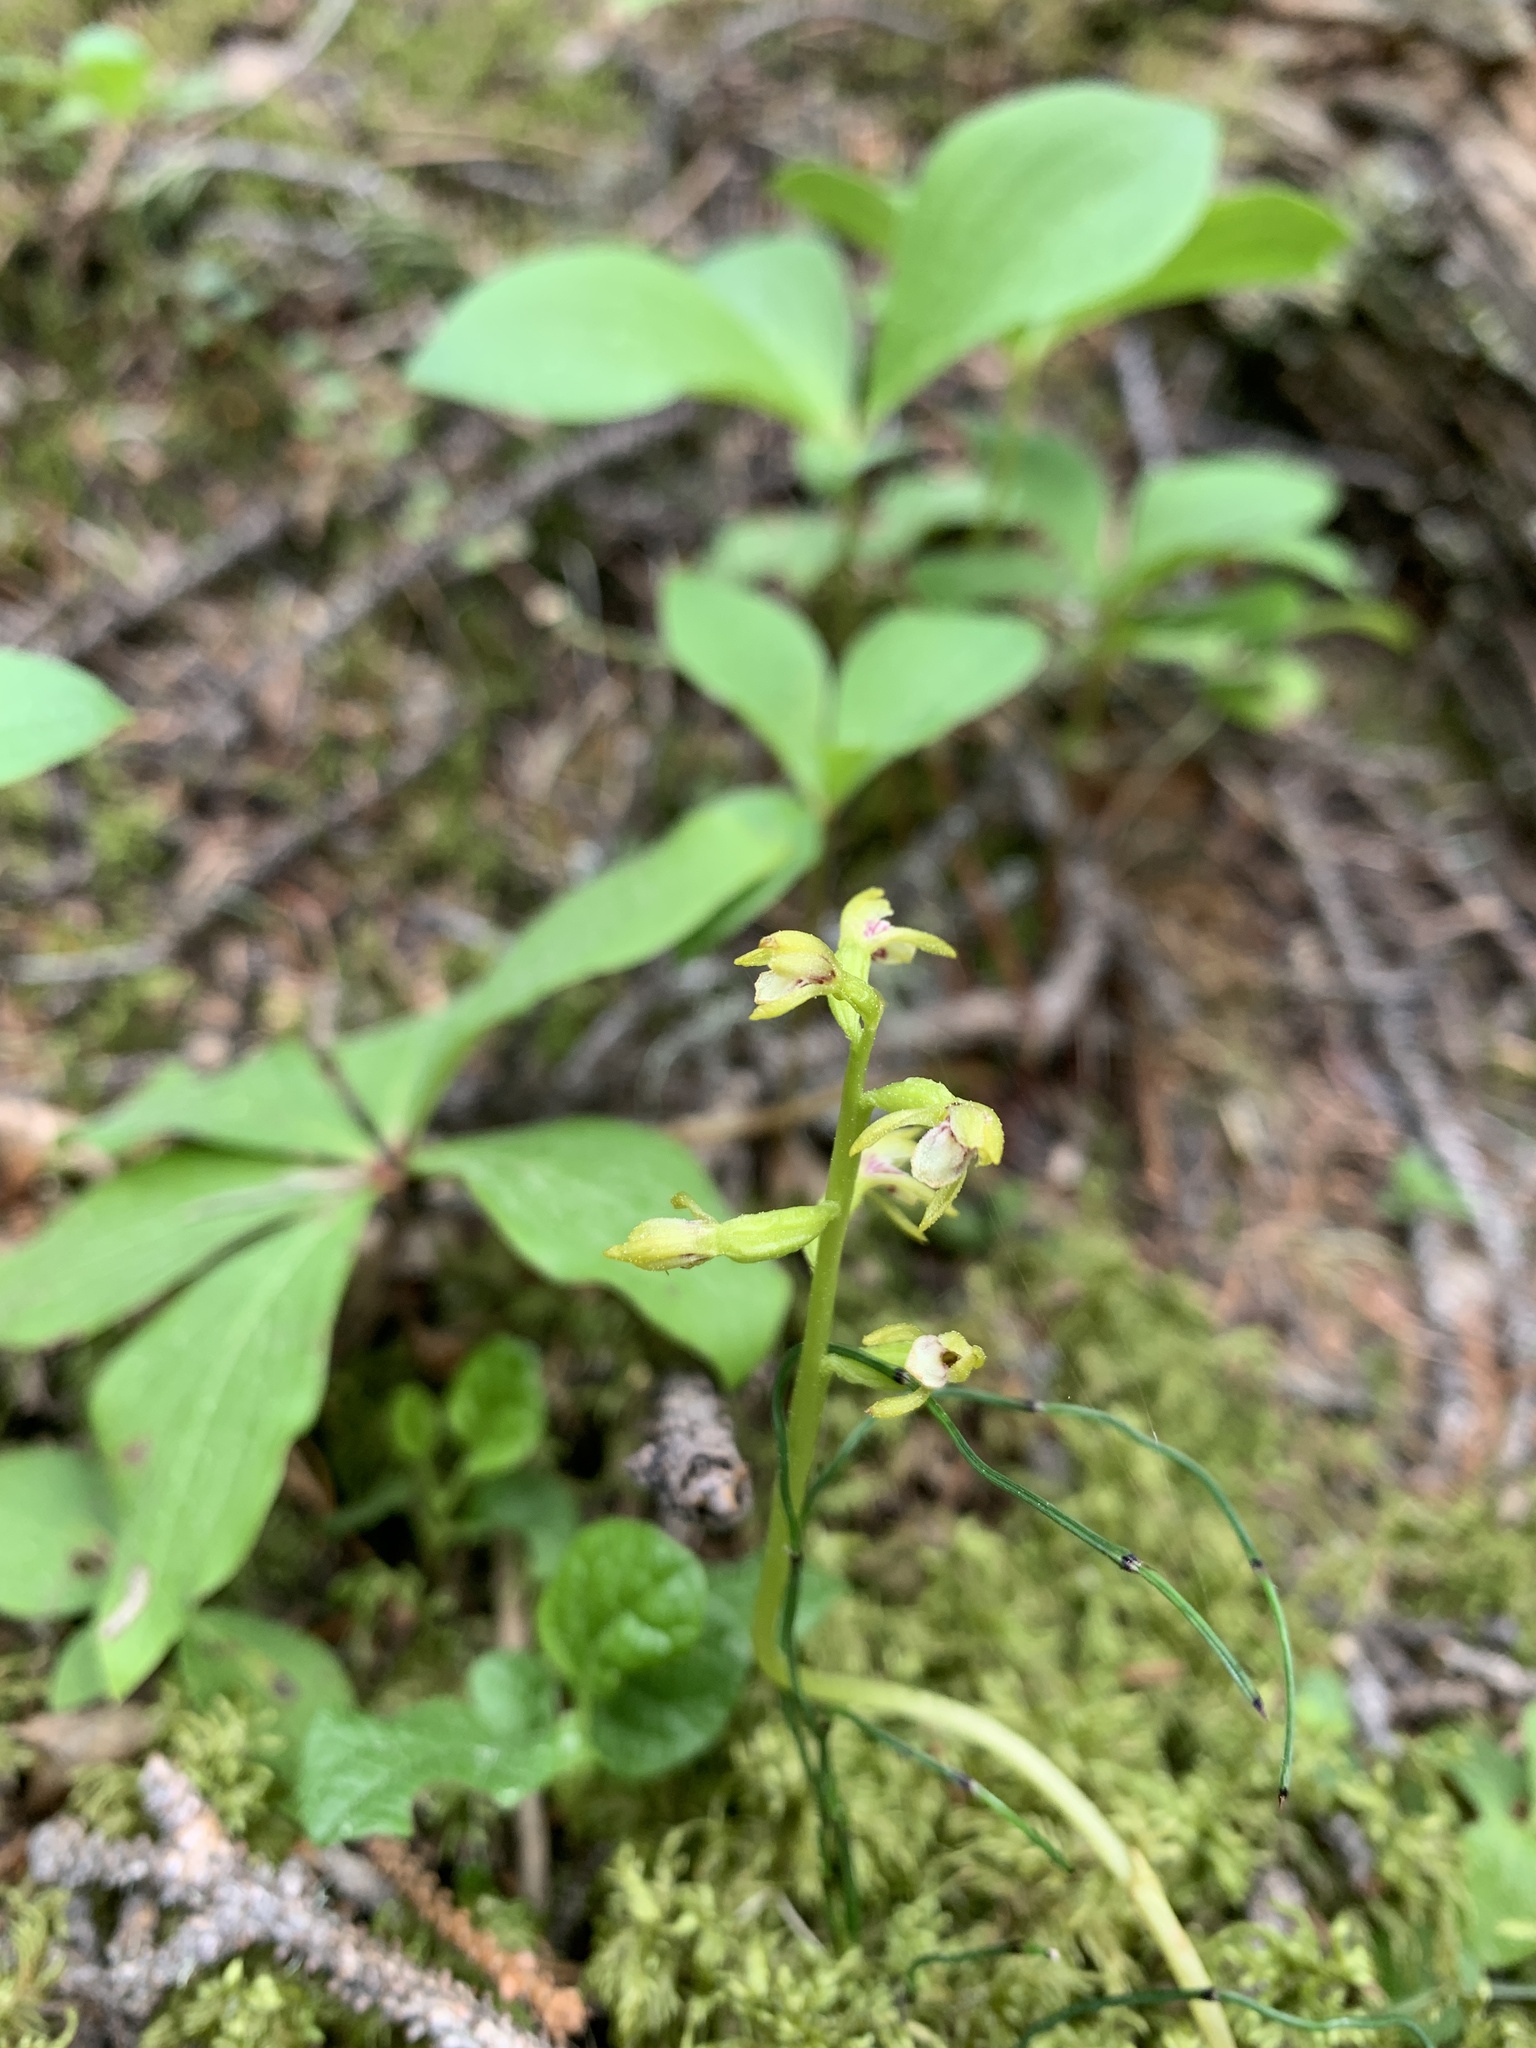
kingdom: Plantae
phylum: Tracheophyta
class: Liliopsida
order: Asparagales
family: Orchidaceae
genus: Corallorhiza
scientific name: Corallorhiza trifida
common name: Yellow coralroot
